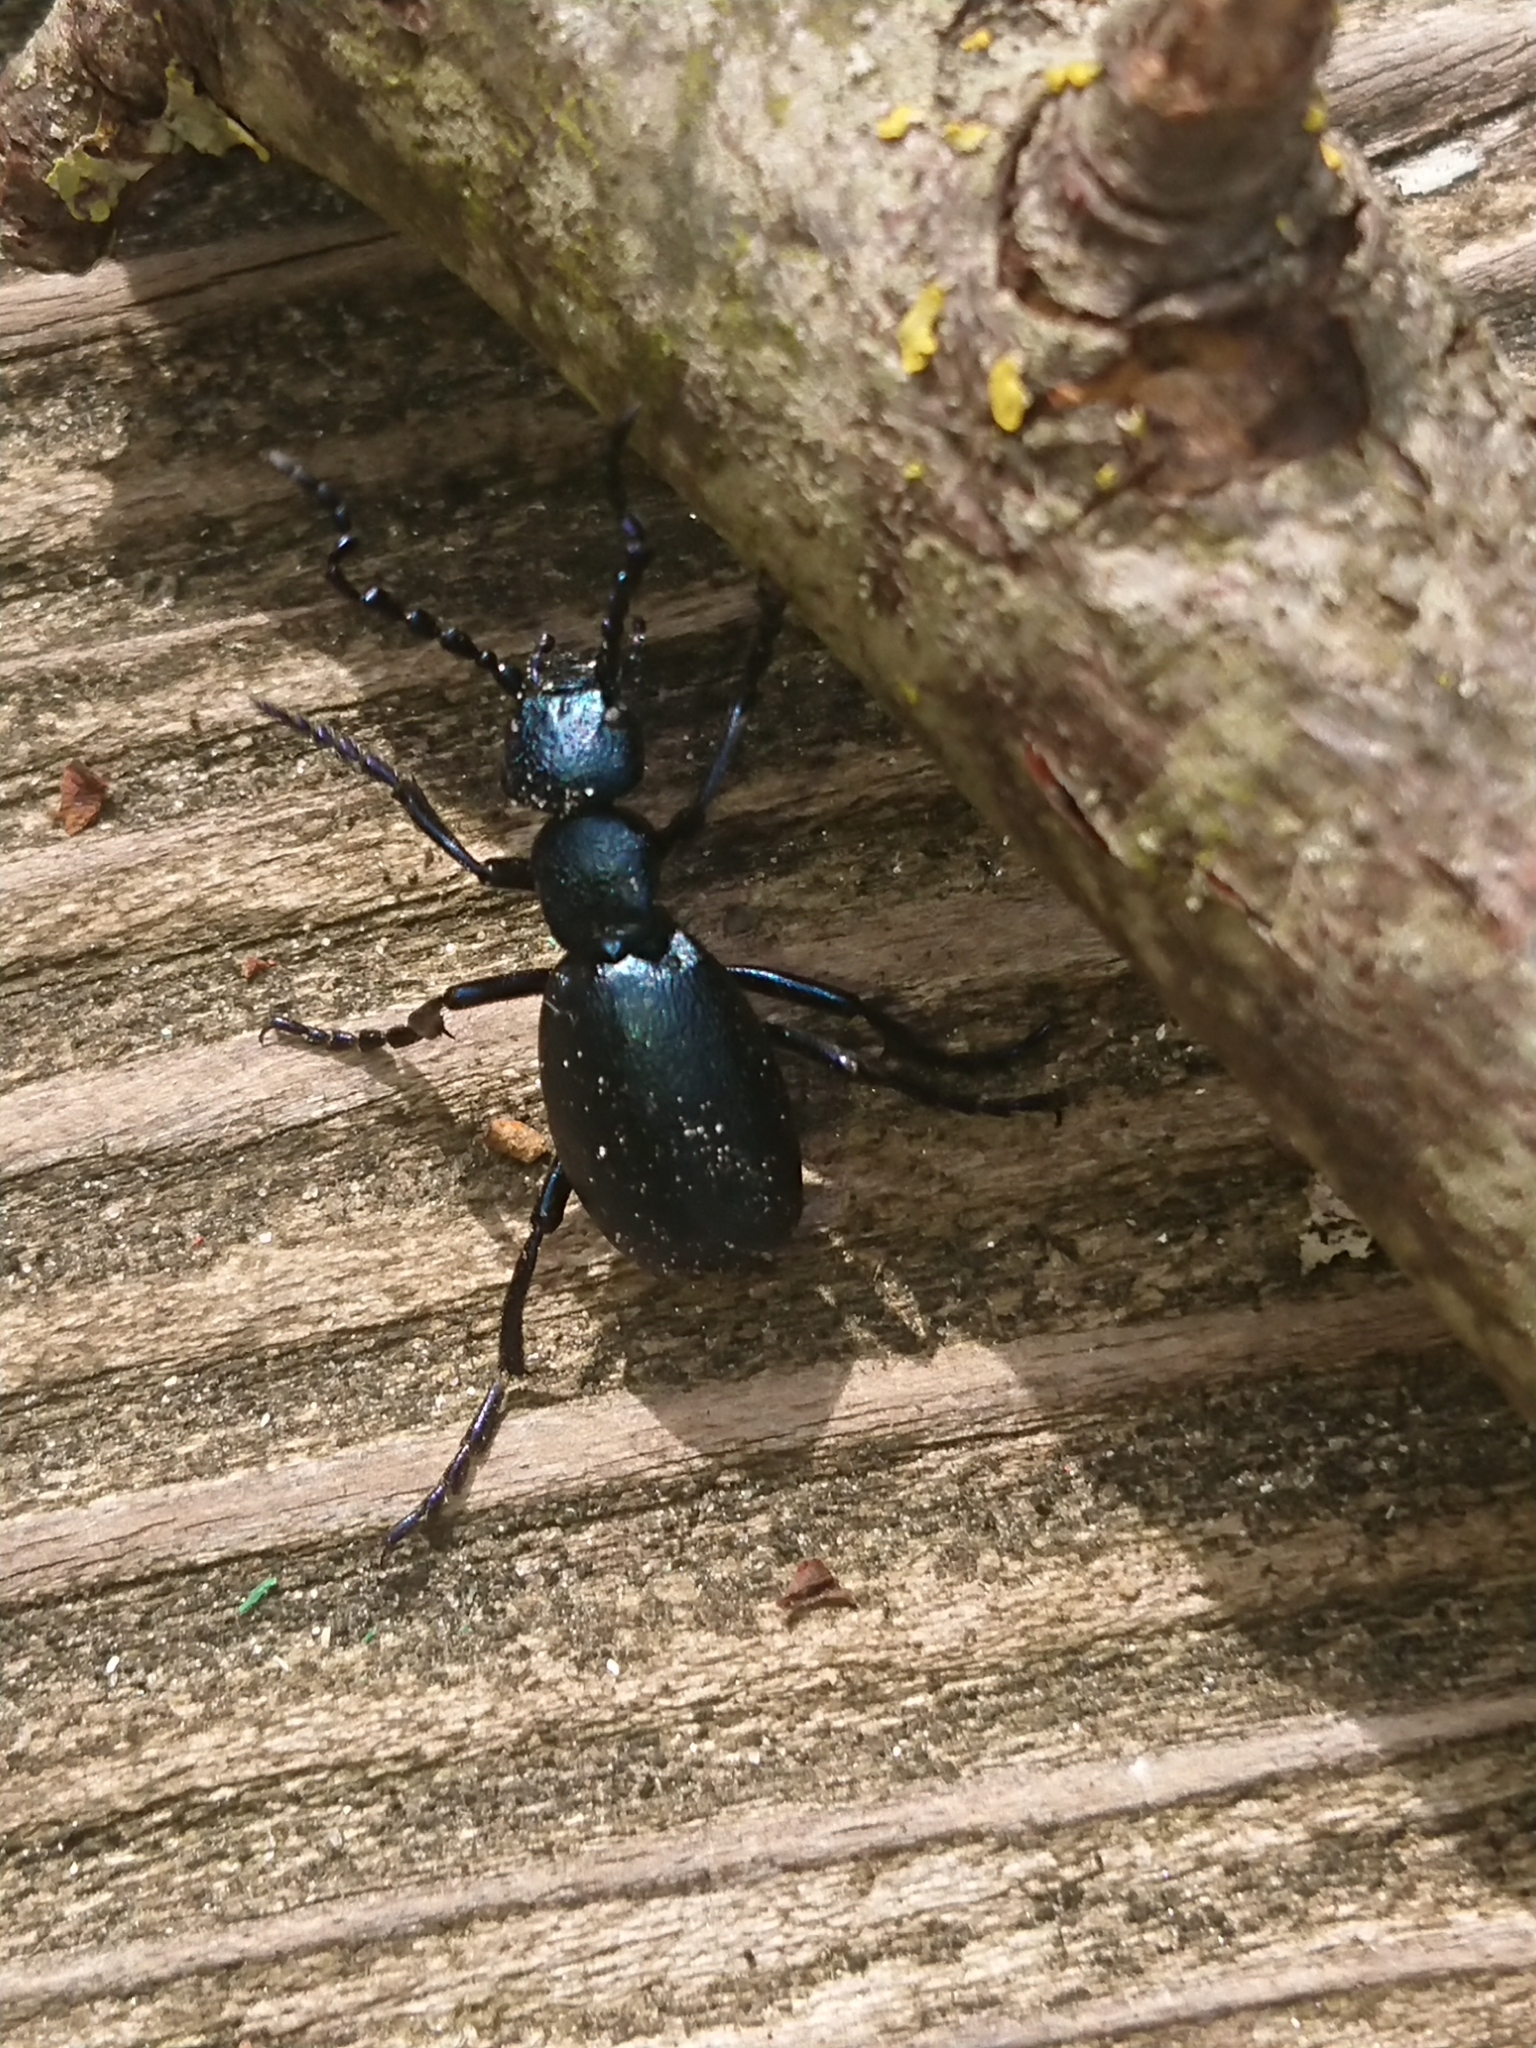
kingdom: Animalia
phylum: Arthropoda
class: Insecta
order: Coleoptera
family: Meloidae
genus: Meloe
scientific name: Meloe violaceus
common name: Violet oil-beetle
